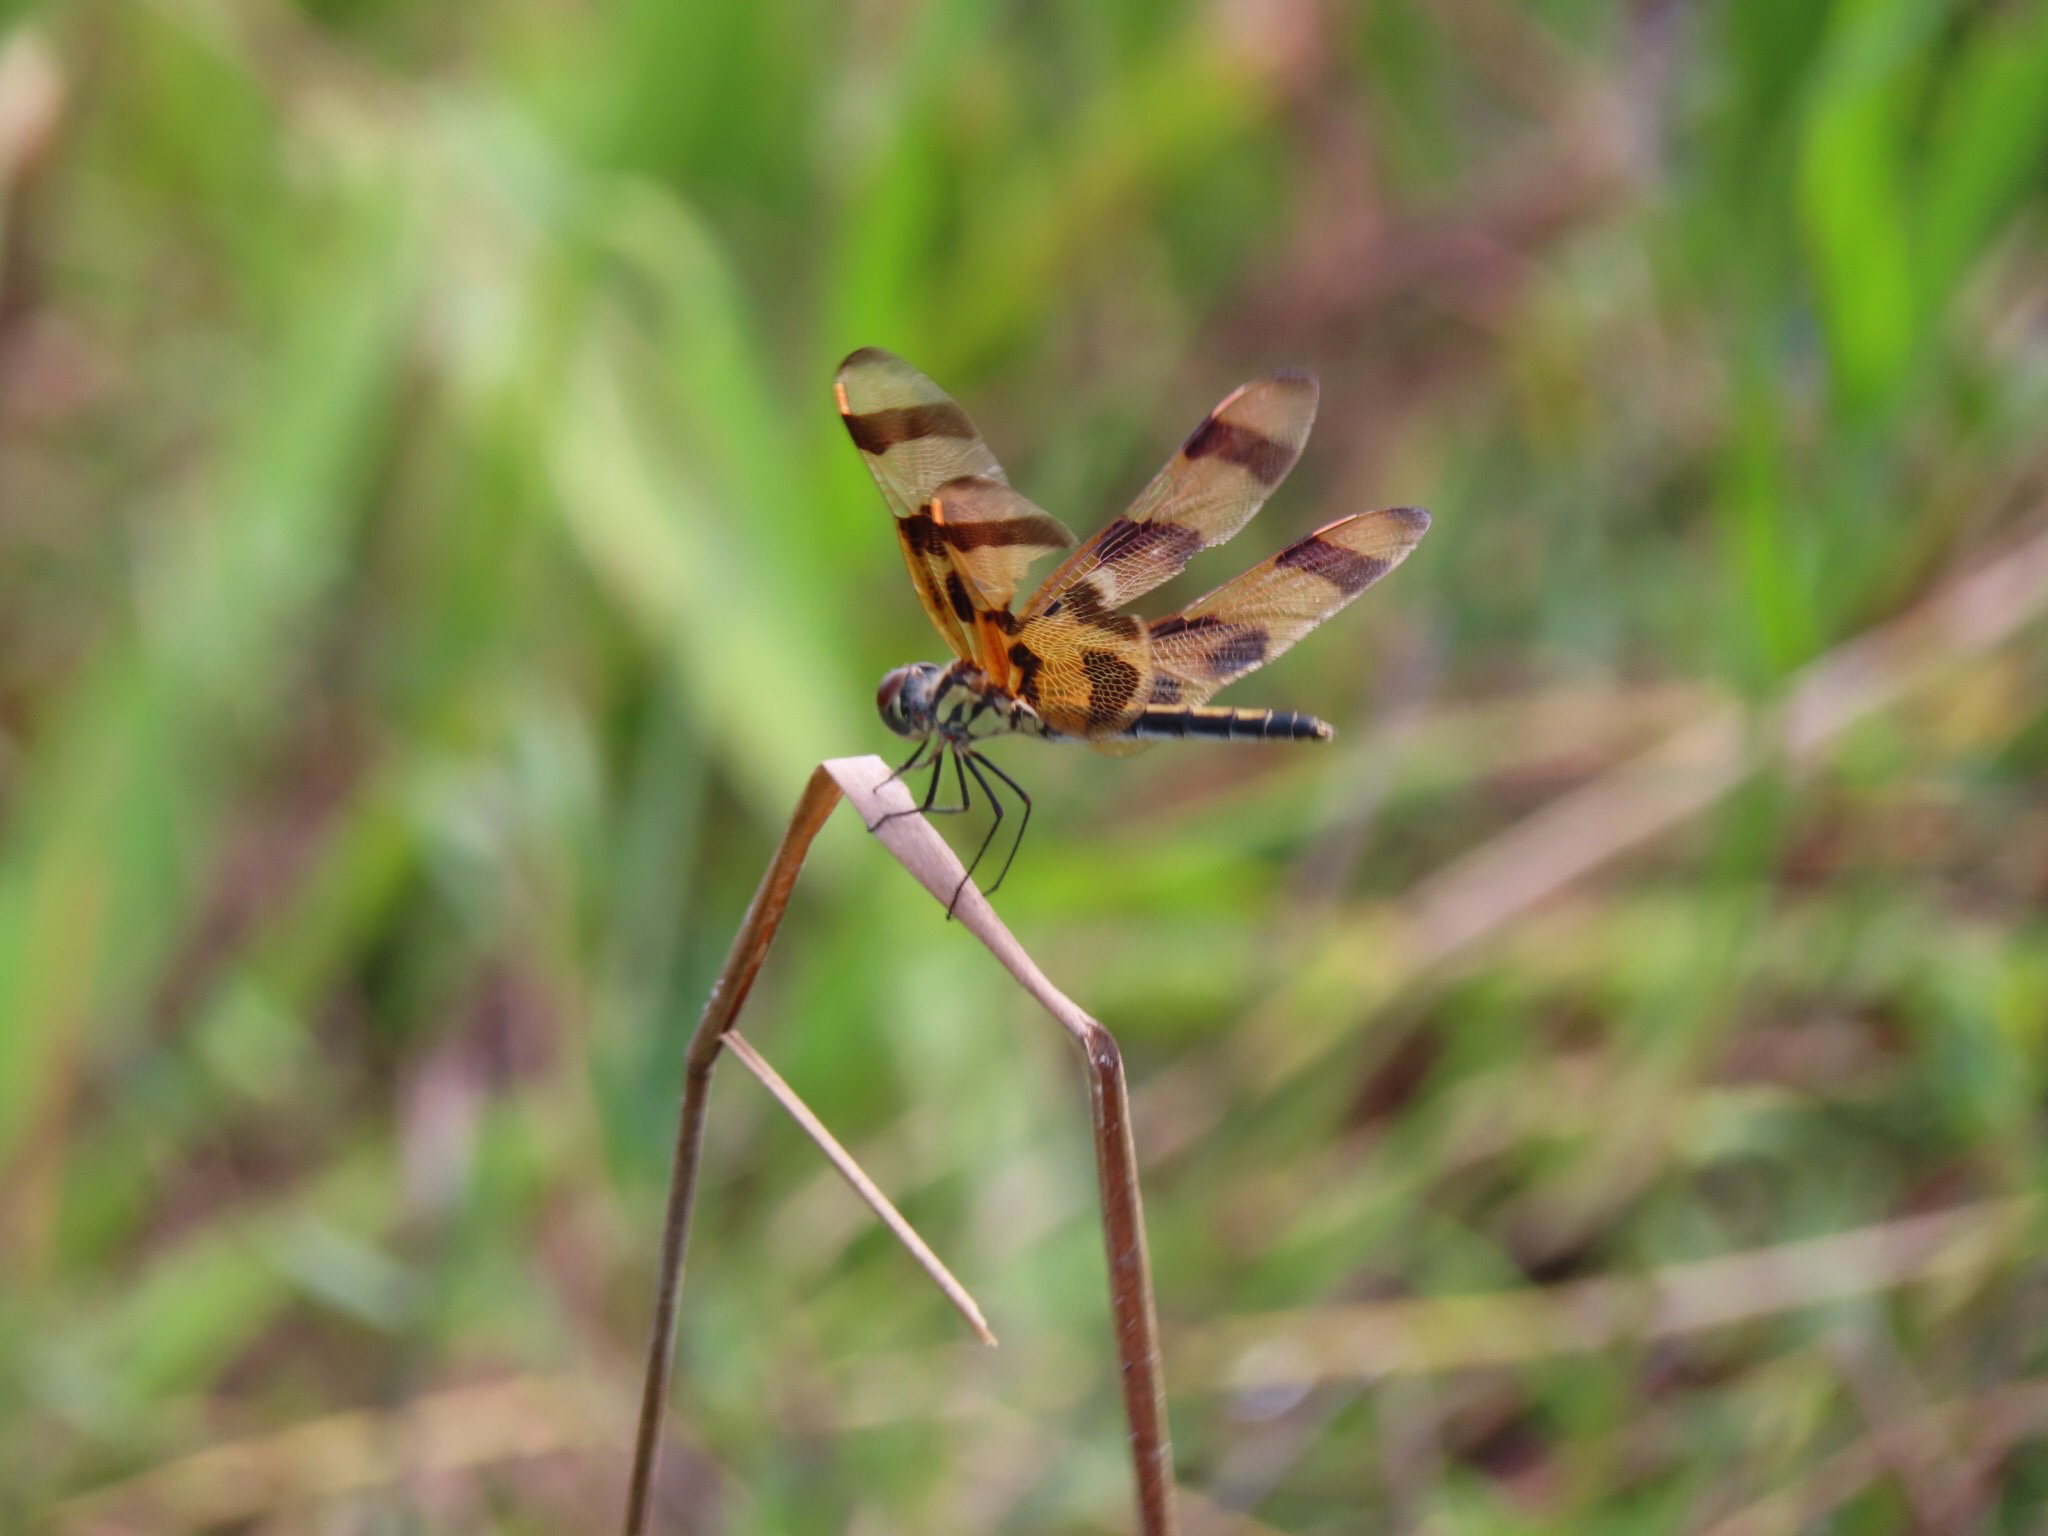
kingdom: Animalia
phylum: Arthropoda
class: Insecta
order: Odonata
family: Libellulidae
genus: Celithemis
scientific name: Celithemis eponina
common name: Halloween pennant
